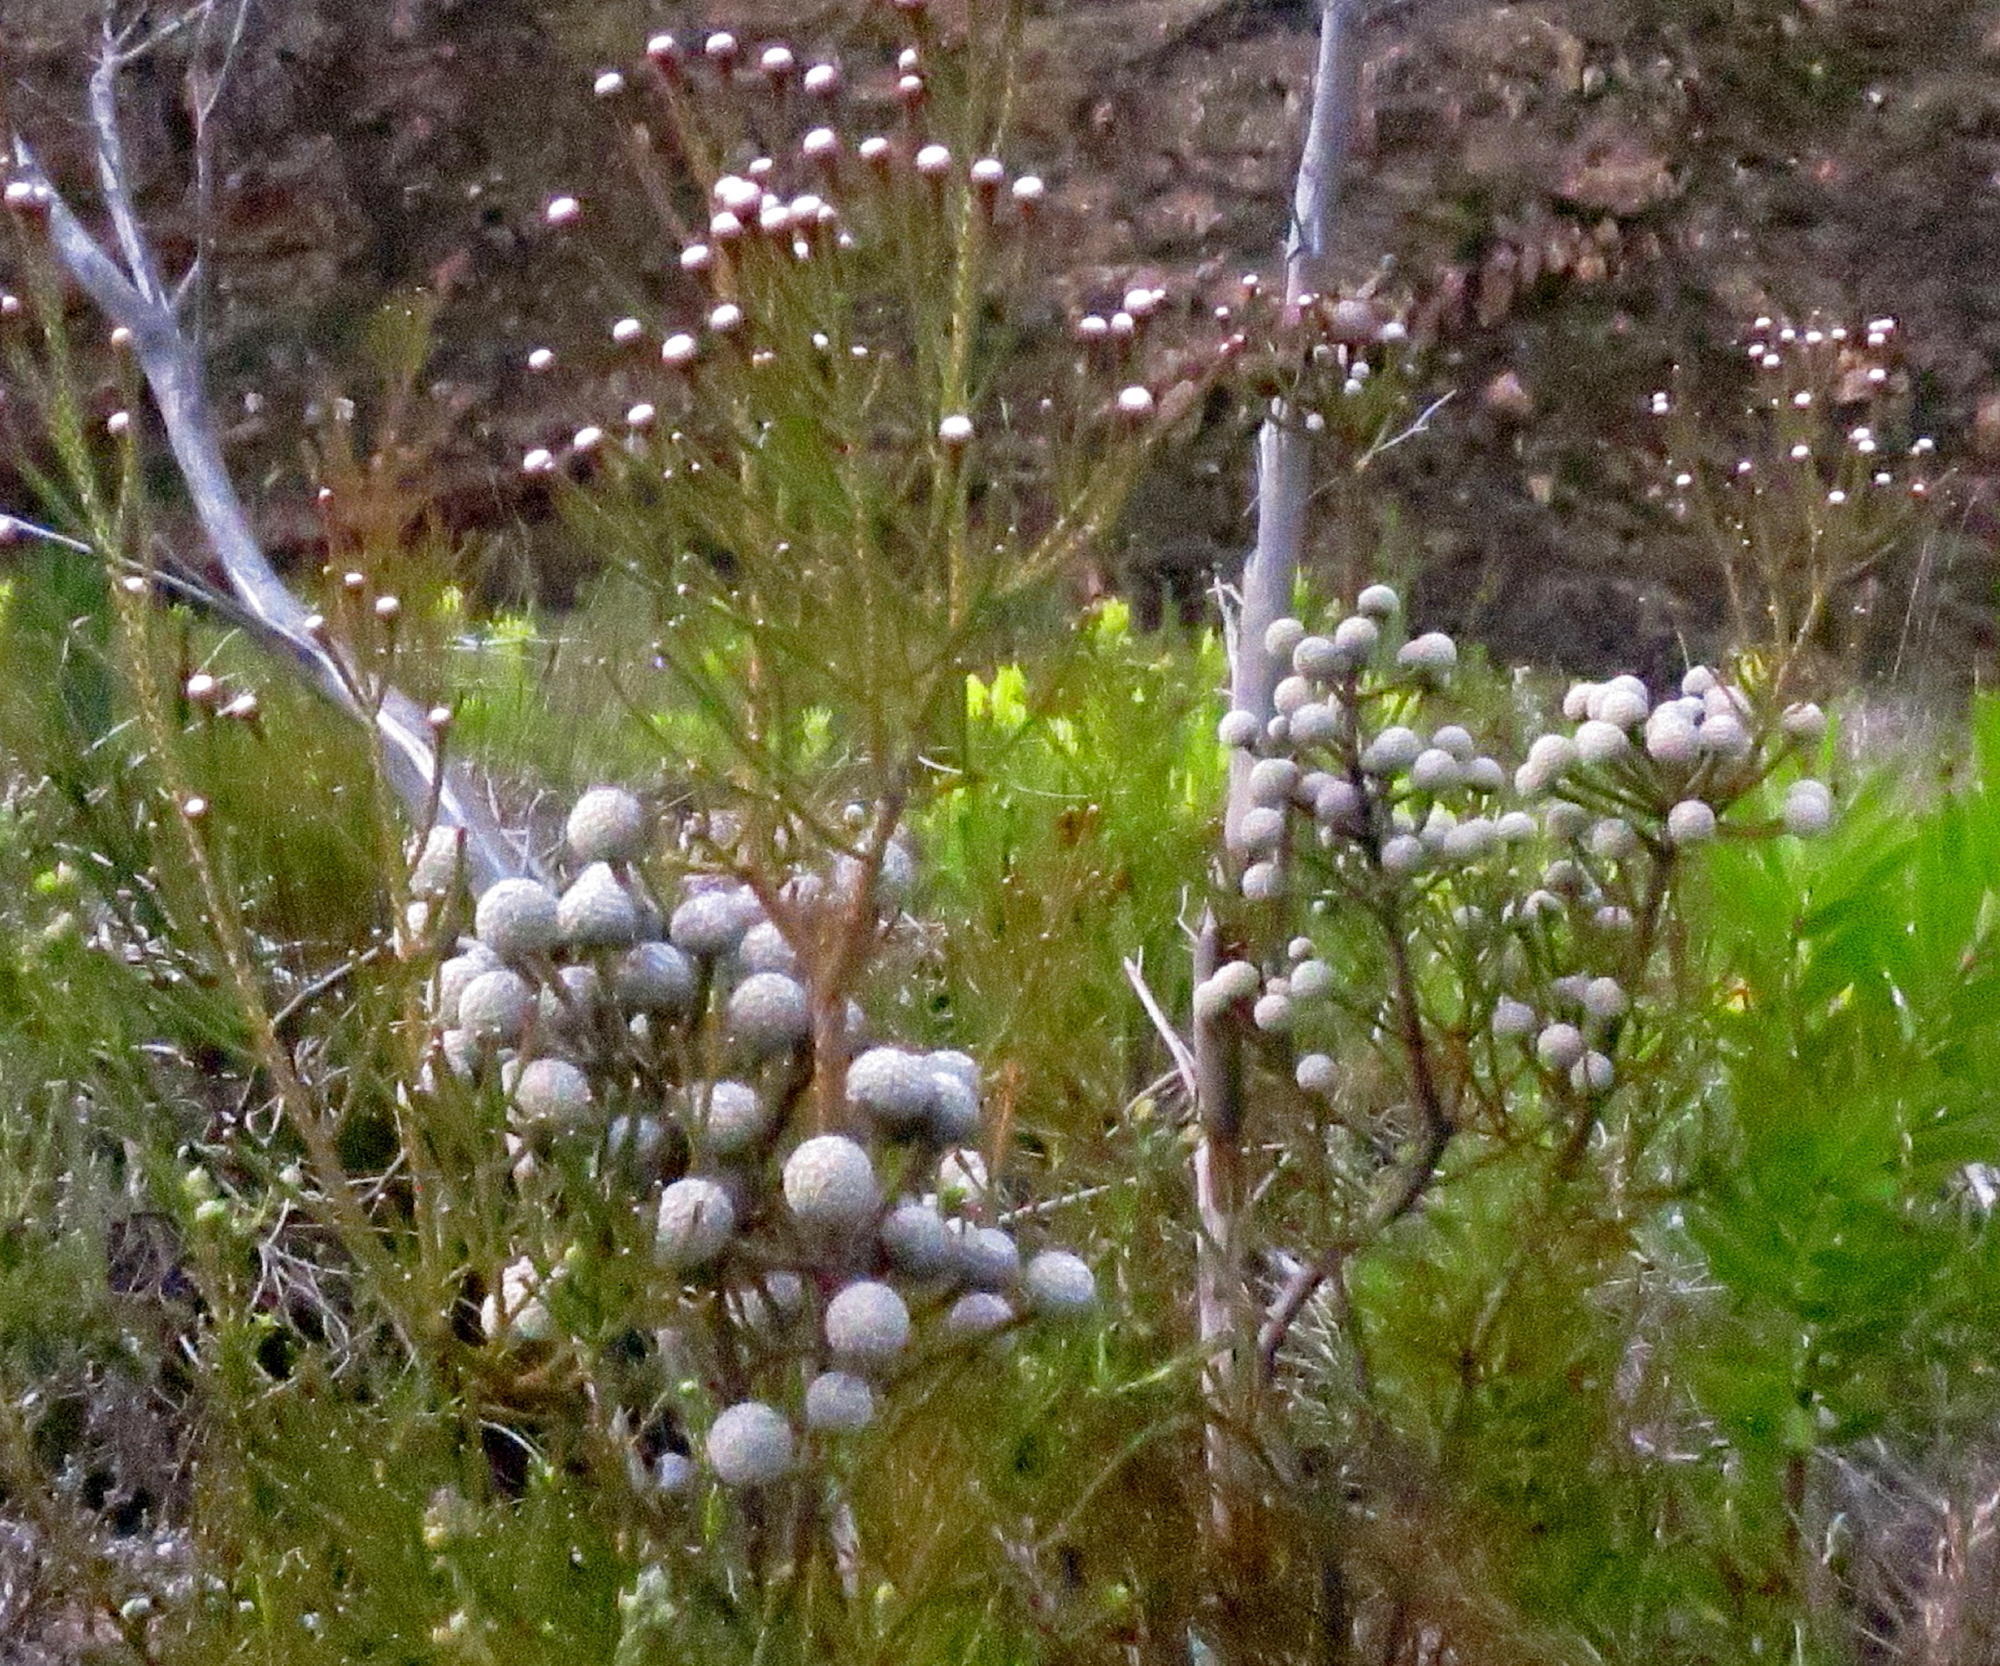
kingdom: Plantae
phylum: Tracheophyta
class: Magnoliopsida
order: Bruniales
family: Bruniaceae
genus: Brunia
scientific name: Brunia noduliflora
